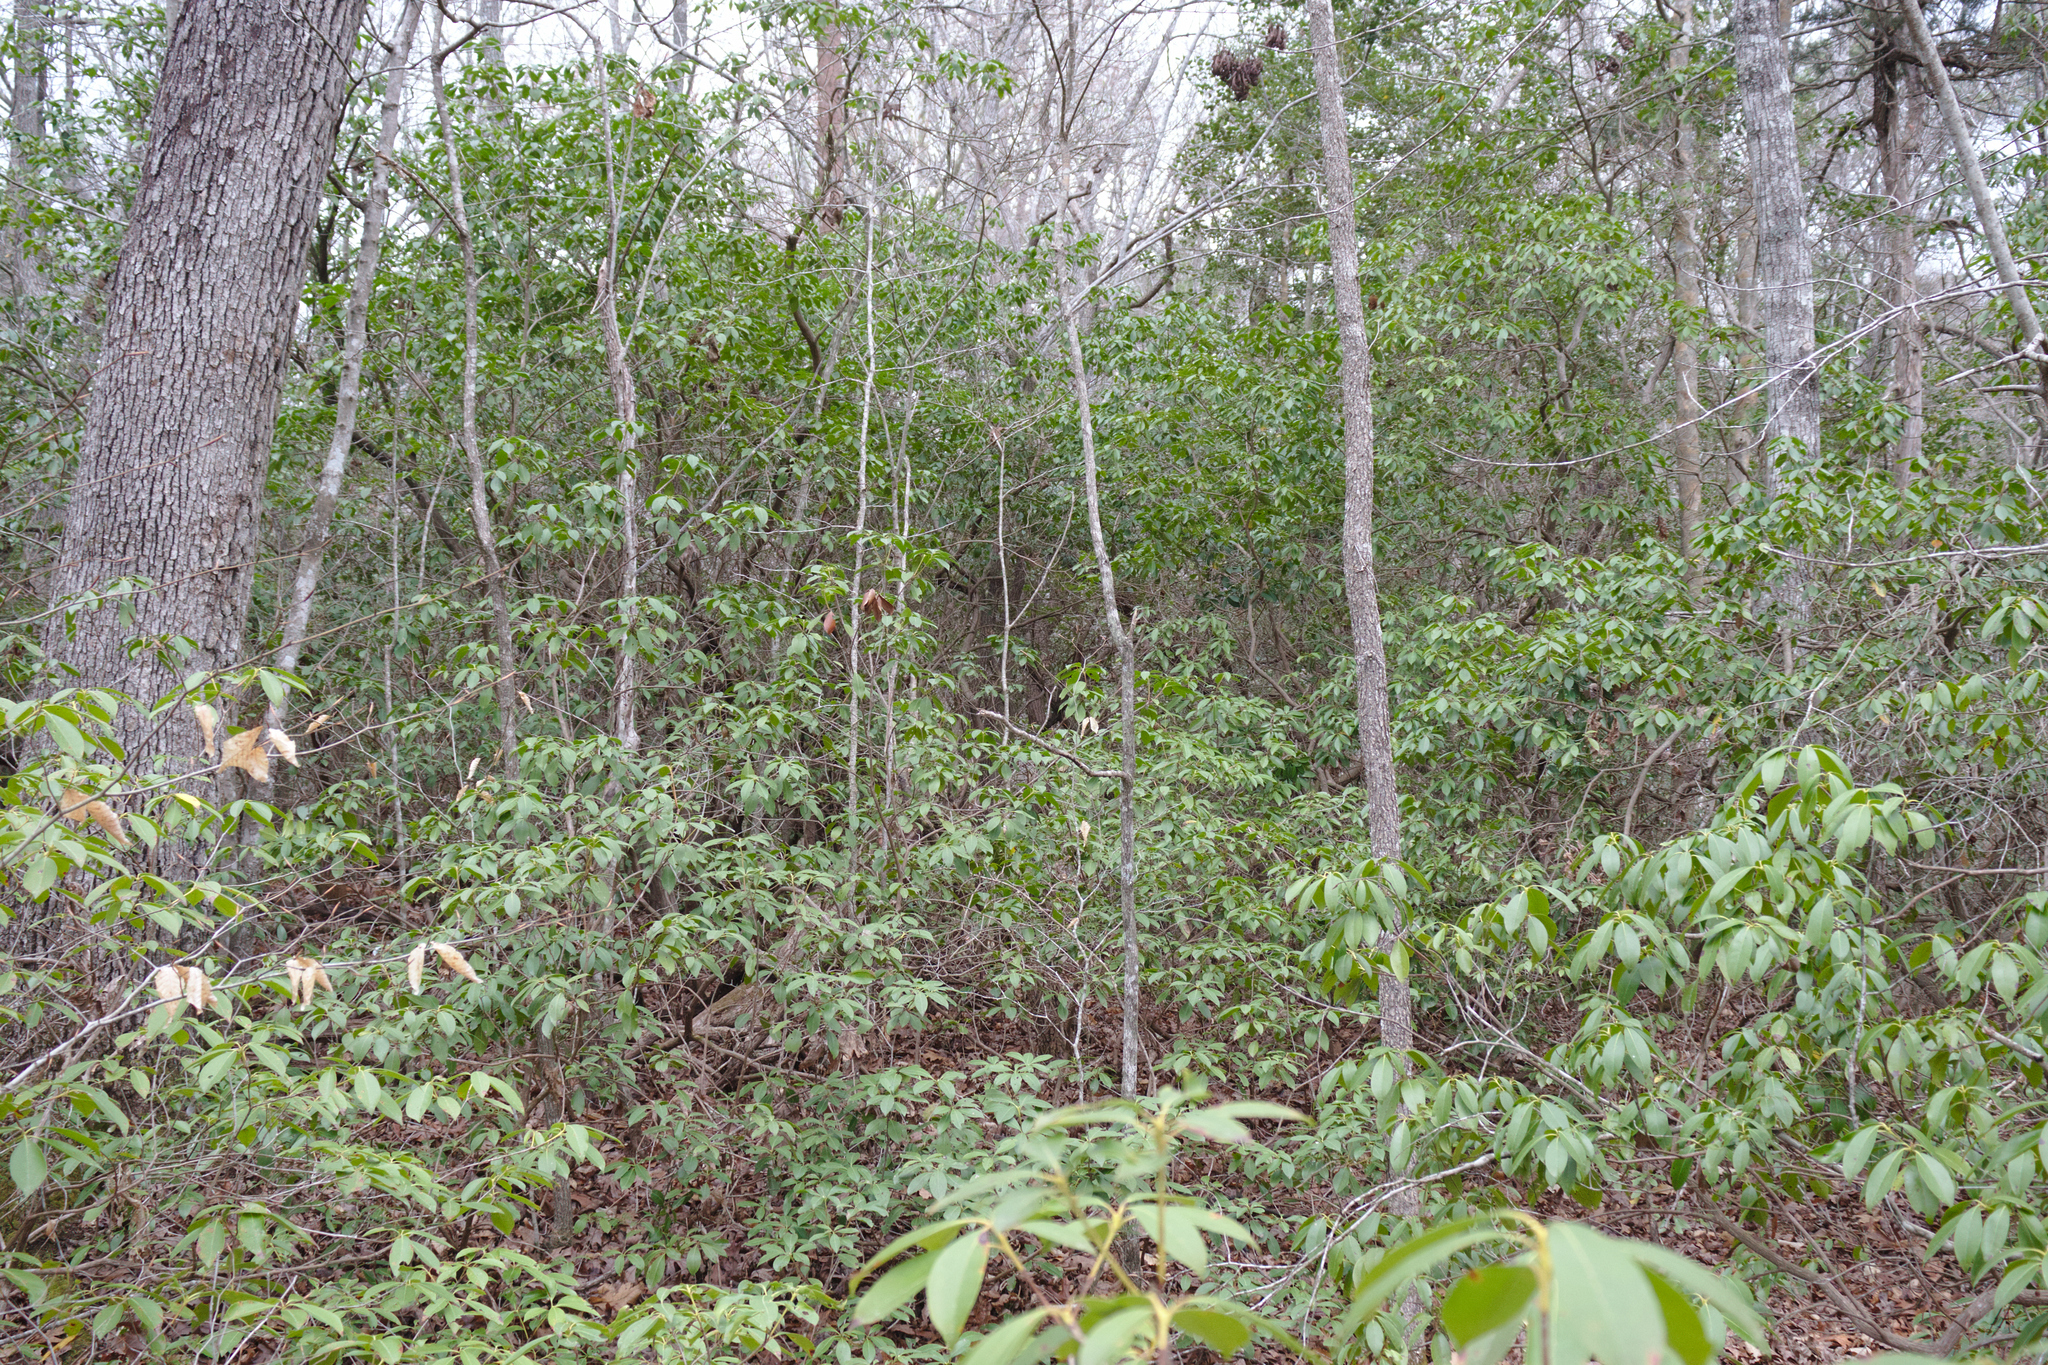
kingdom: Plantae
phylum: Tracheophyta
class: Magnoliopsida
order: Ericales
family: Ericaceae
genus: Kalmia
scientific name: Kalmia latifolia
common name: Mountain-laurel
